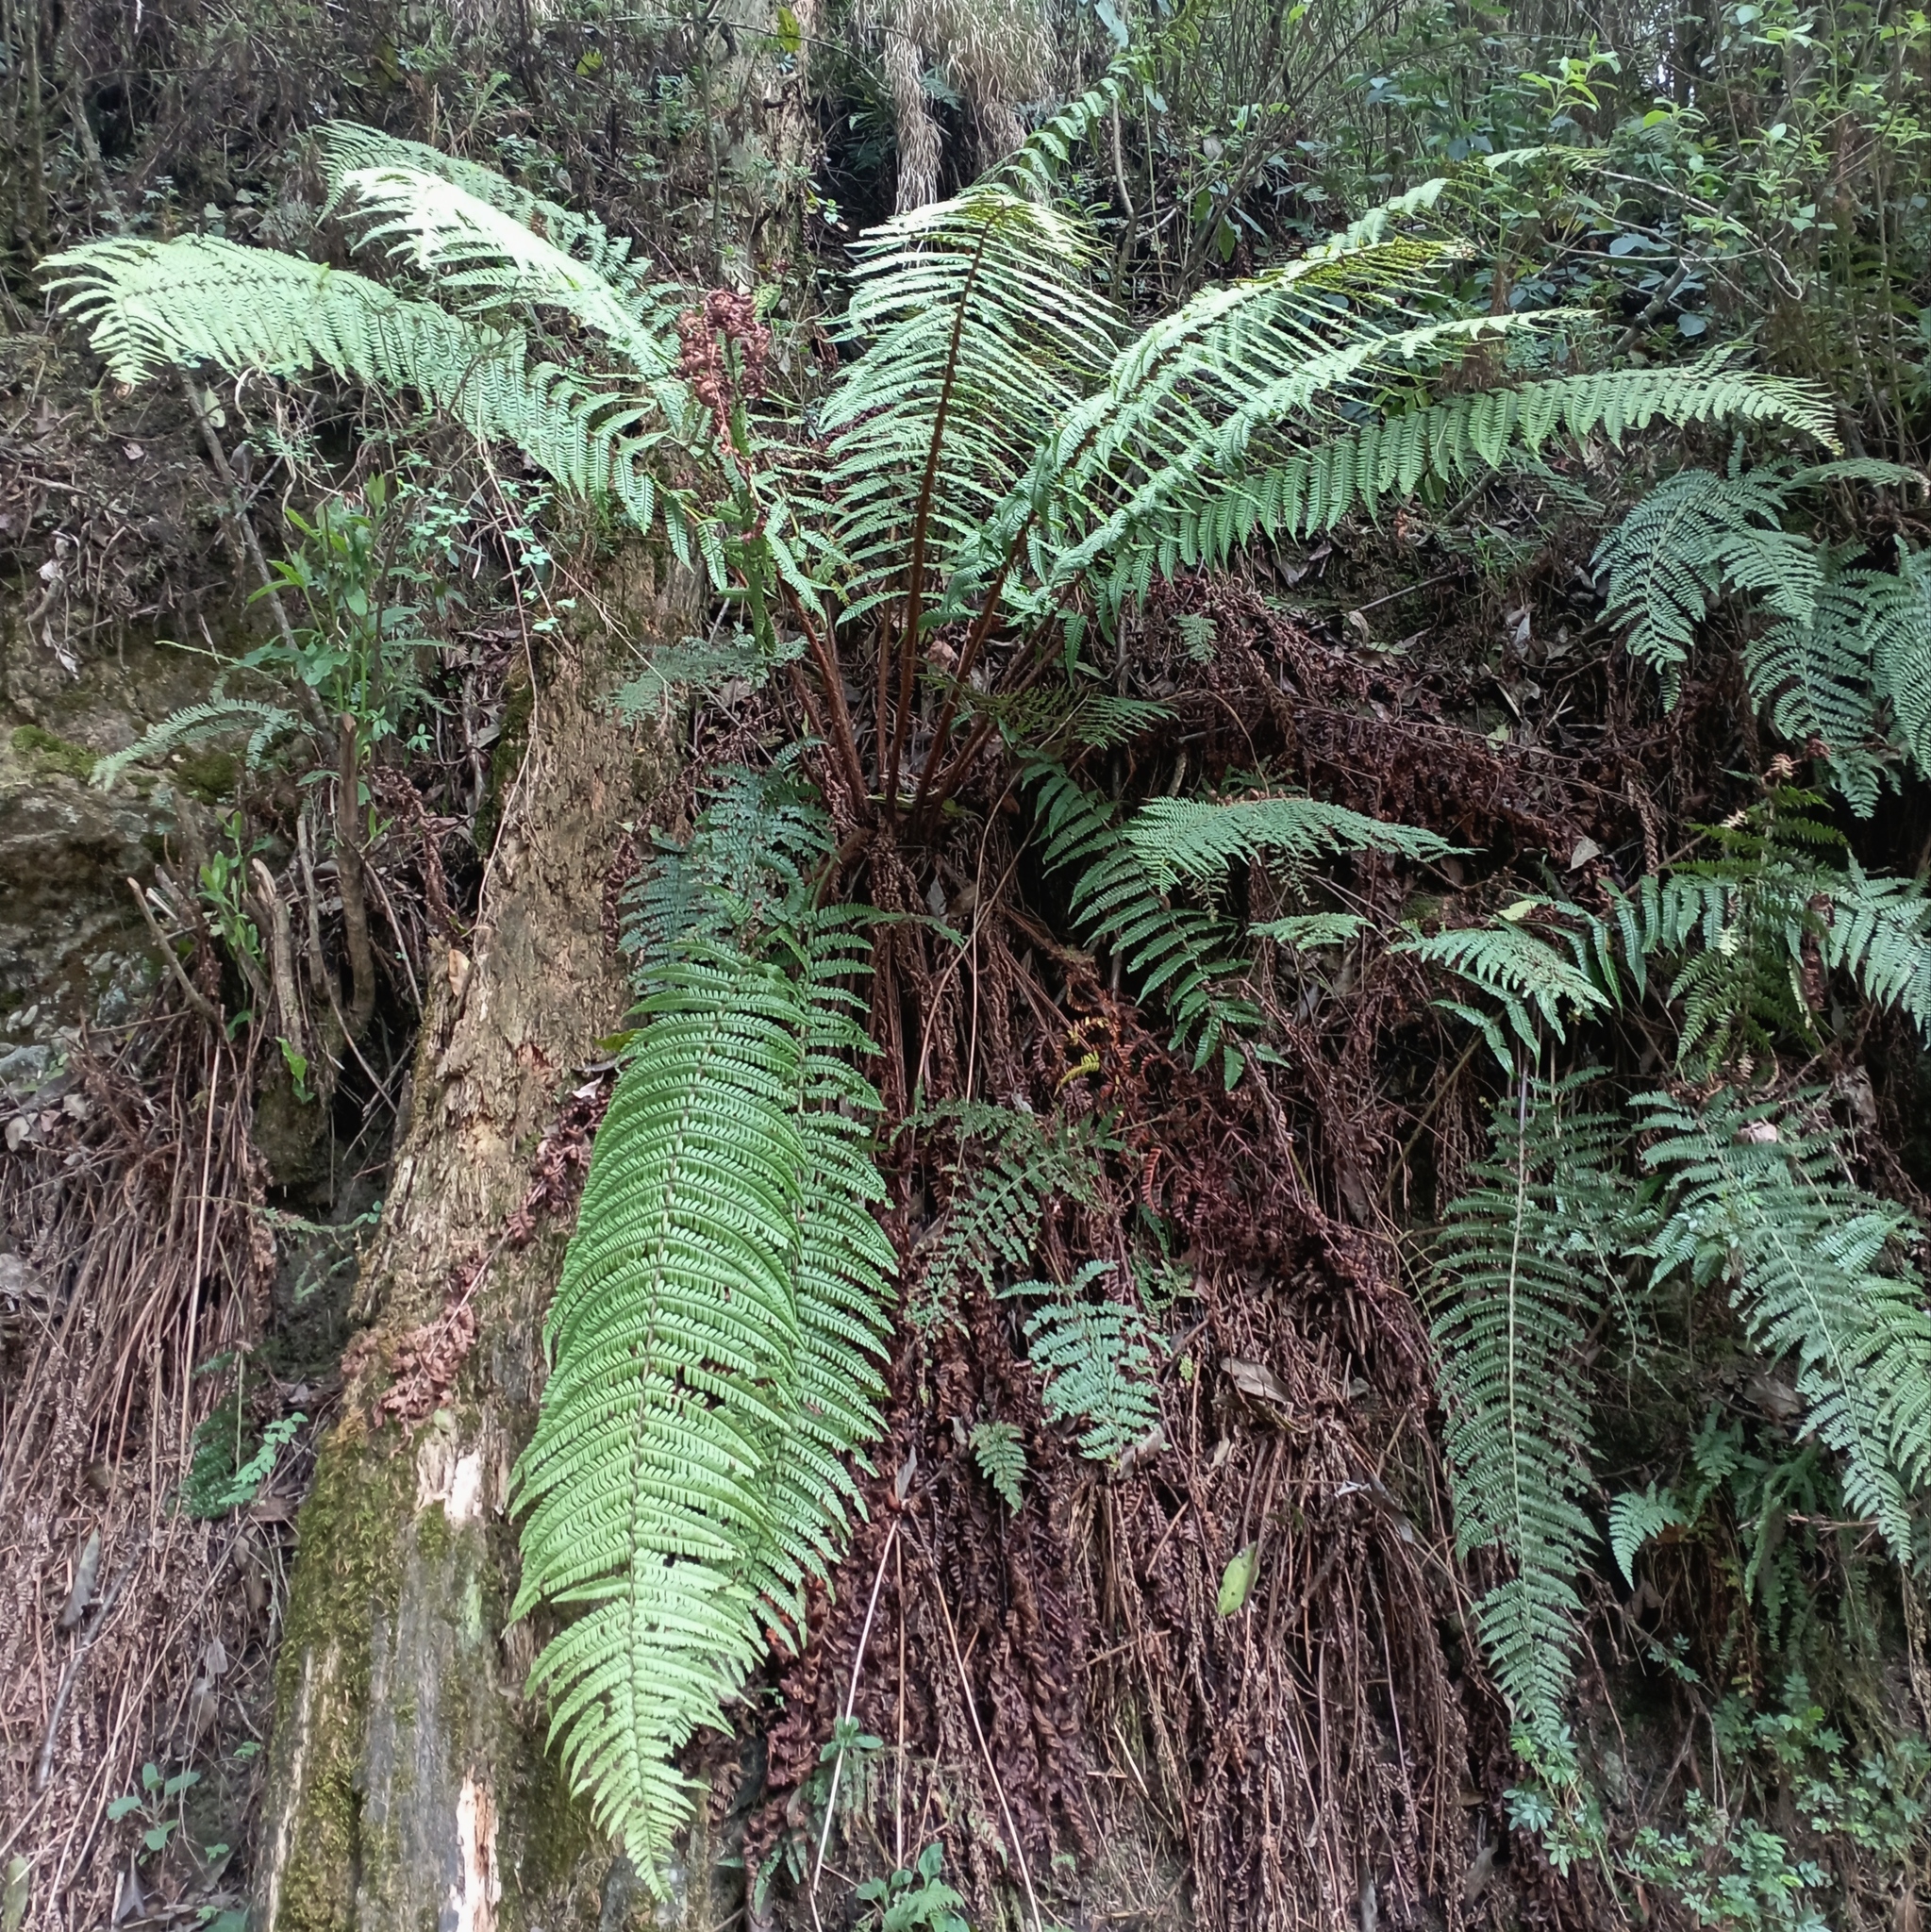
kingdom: Plantae
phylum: Tracheophyta
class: Polypodiopsida
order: Polypodiales
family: Dryopteridaceae
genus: Dryopteris
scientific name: Dryopteris wallichiana
